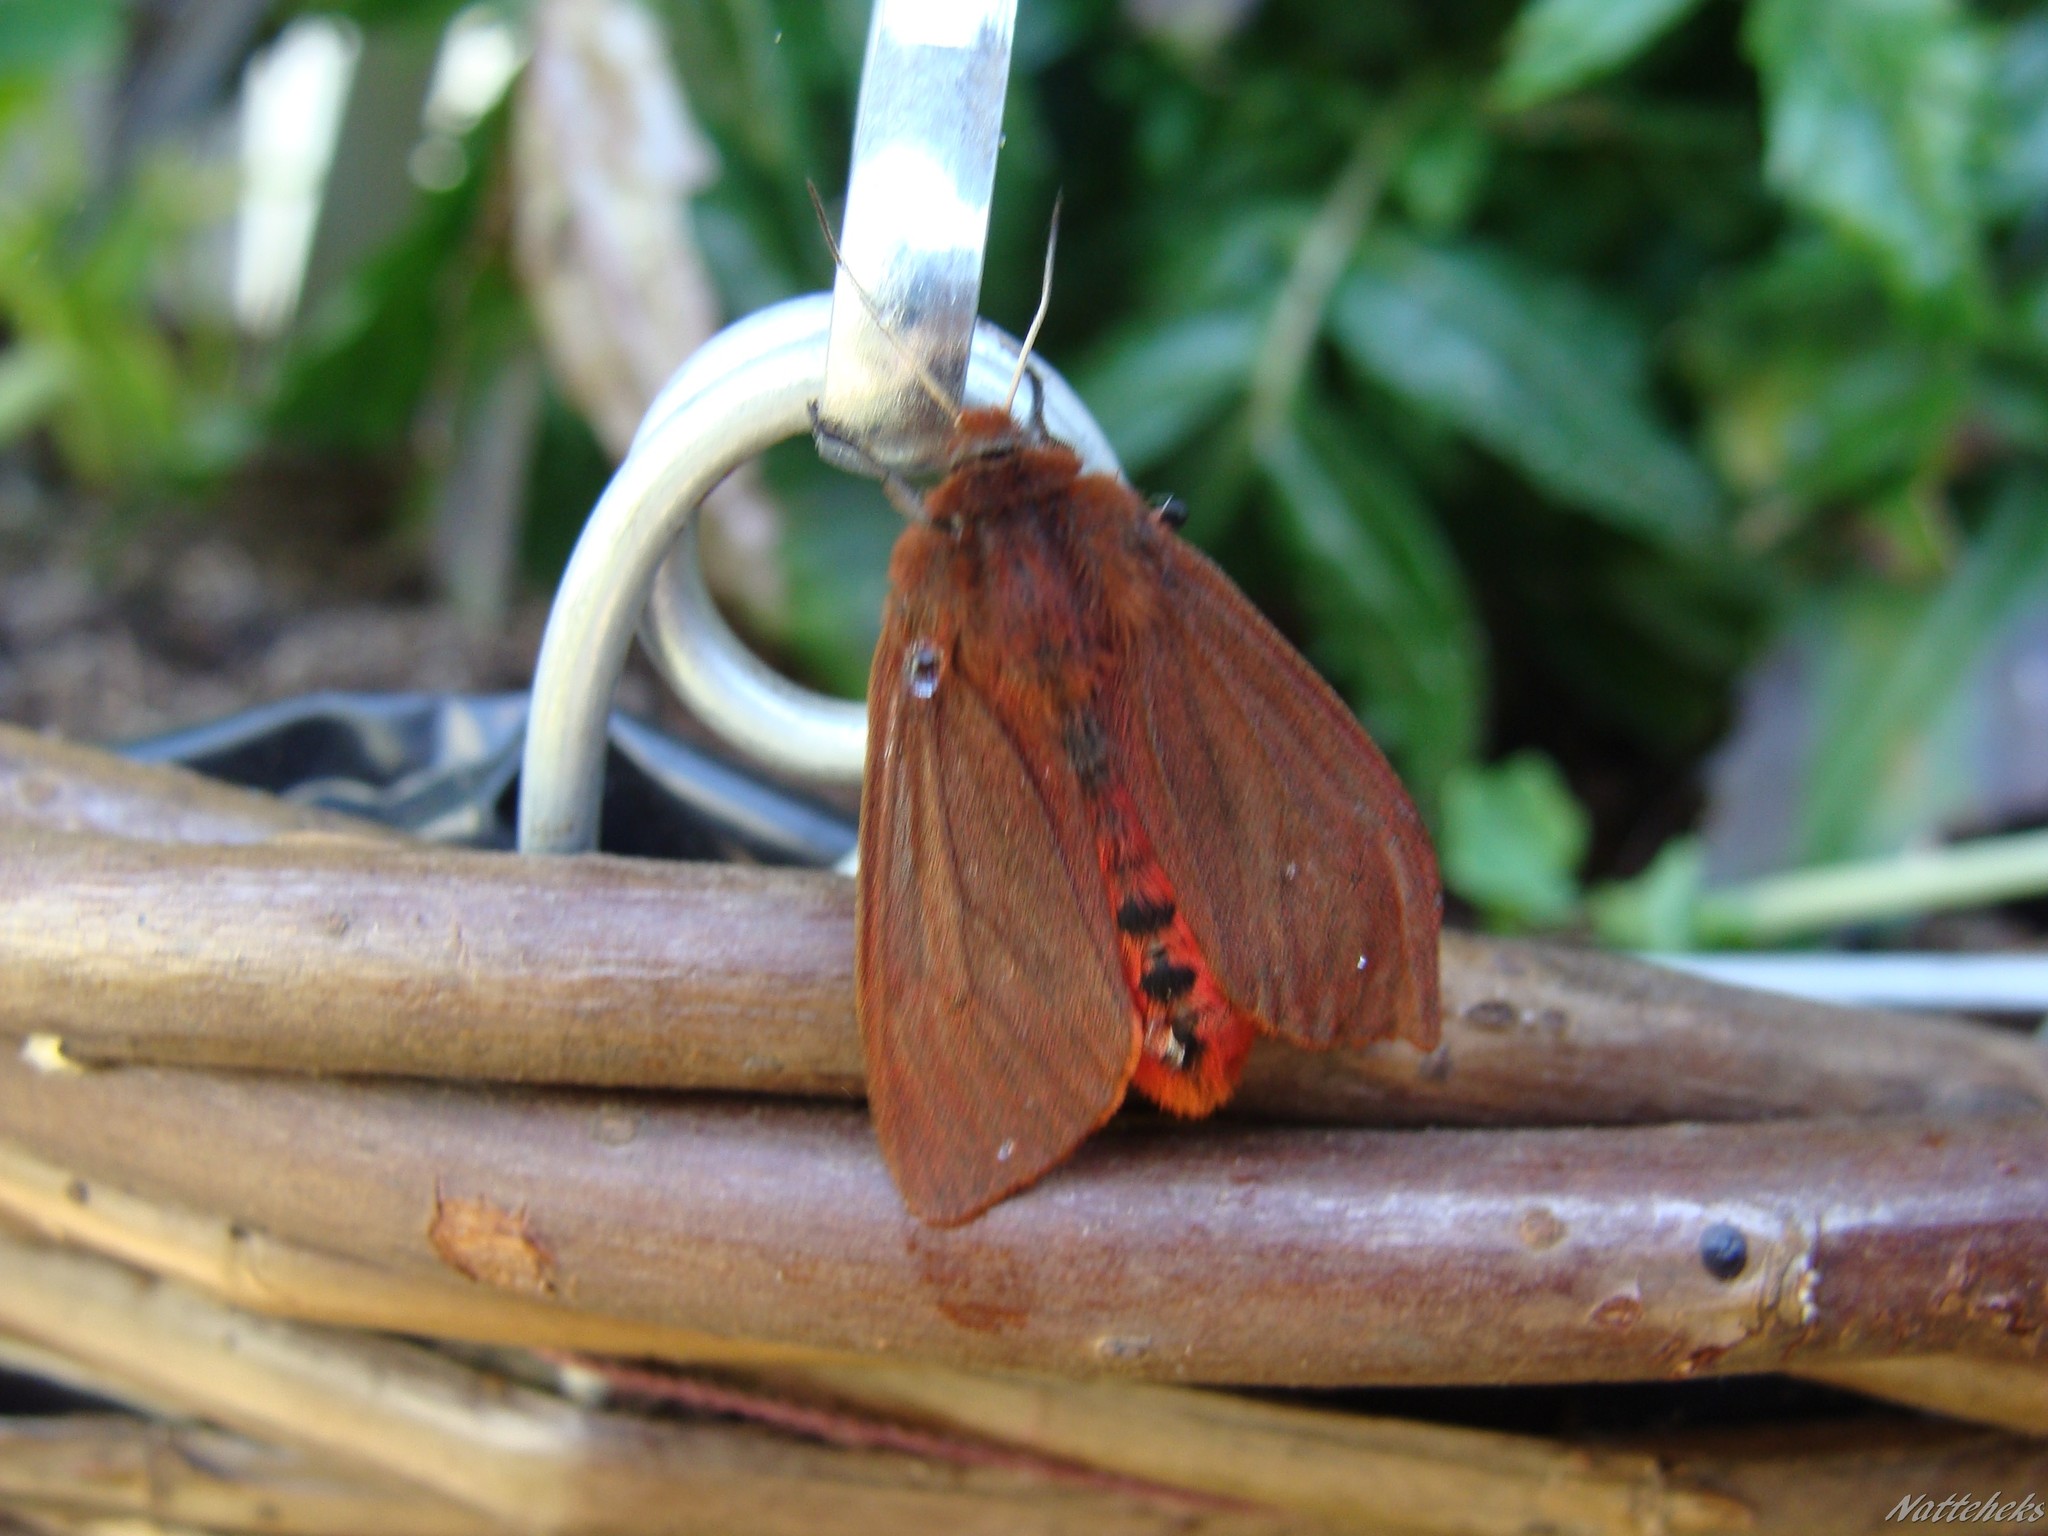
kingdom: Animalia
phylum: Arthropoda
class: Insecta
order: Lepidoptera
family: Erebidae
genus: Phragmatobia
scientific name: Phragmatobia fuliginosa
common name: Ruby tiger
